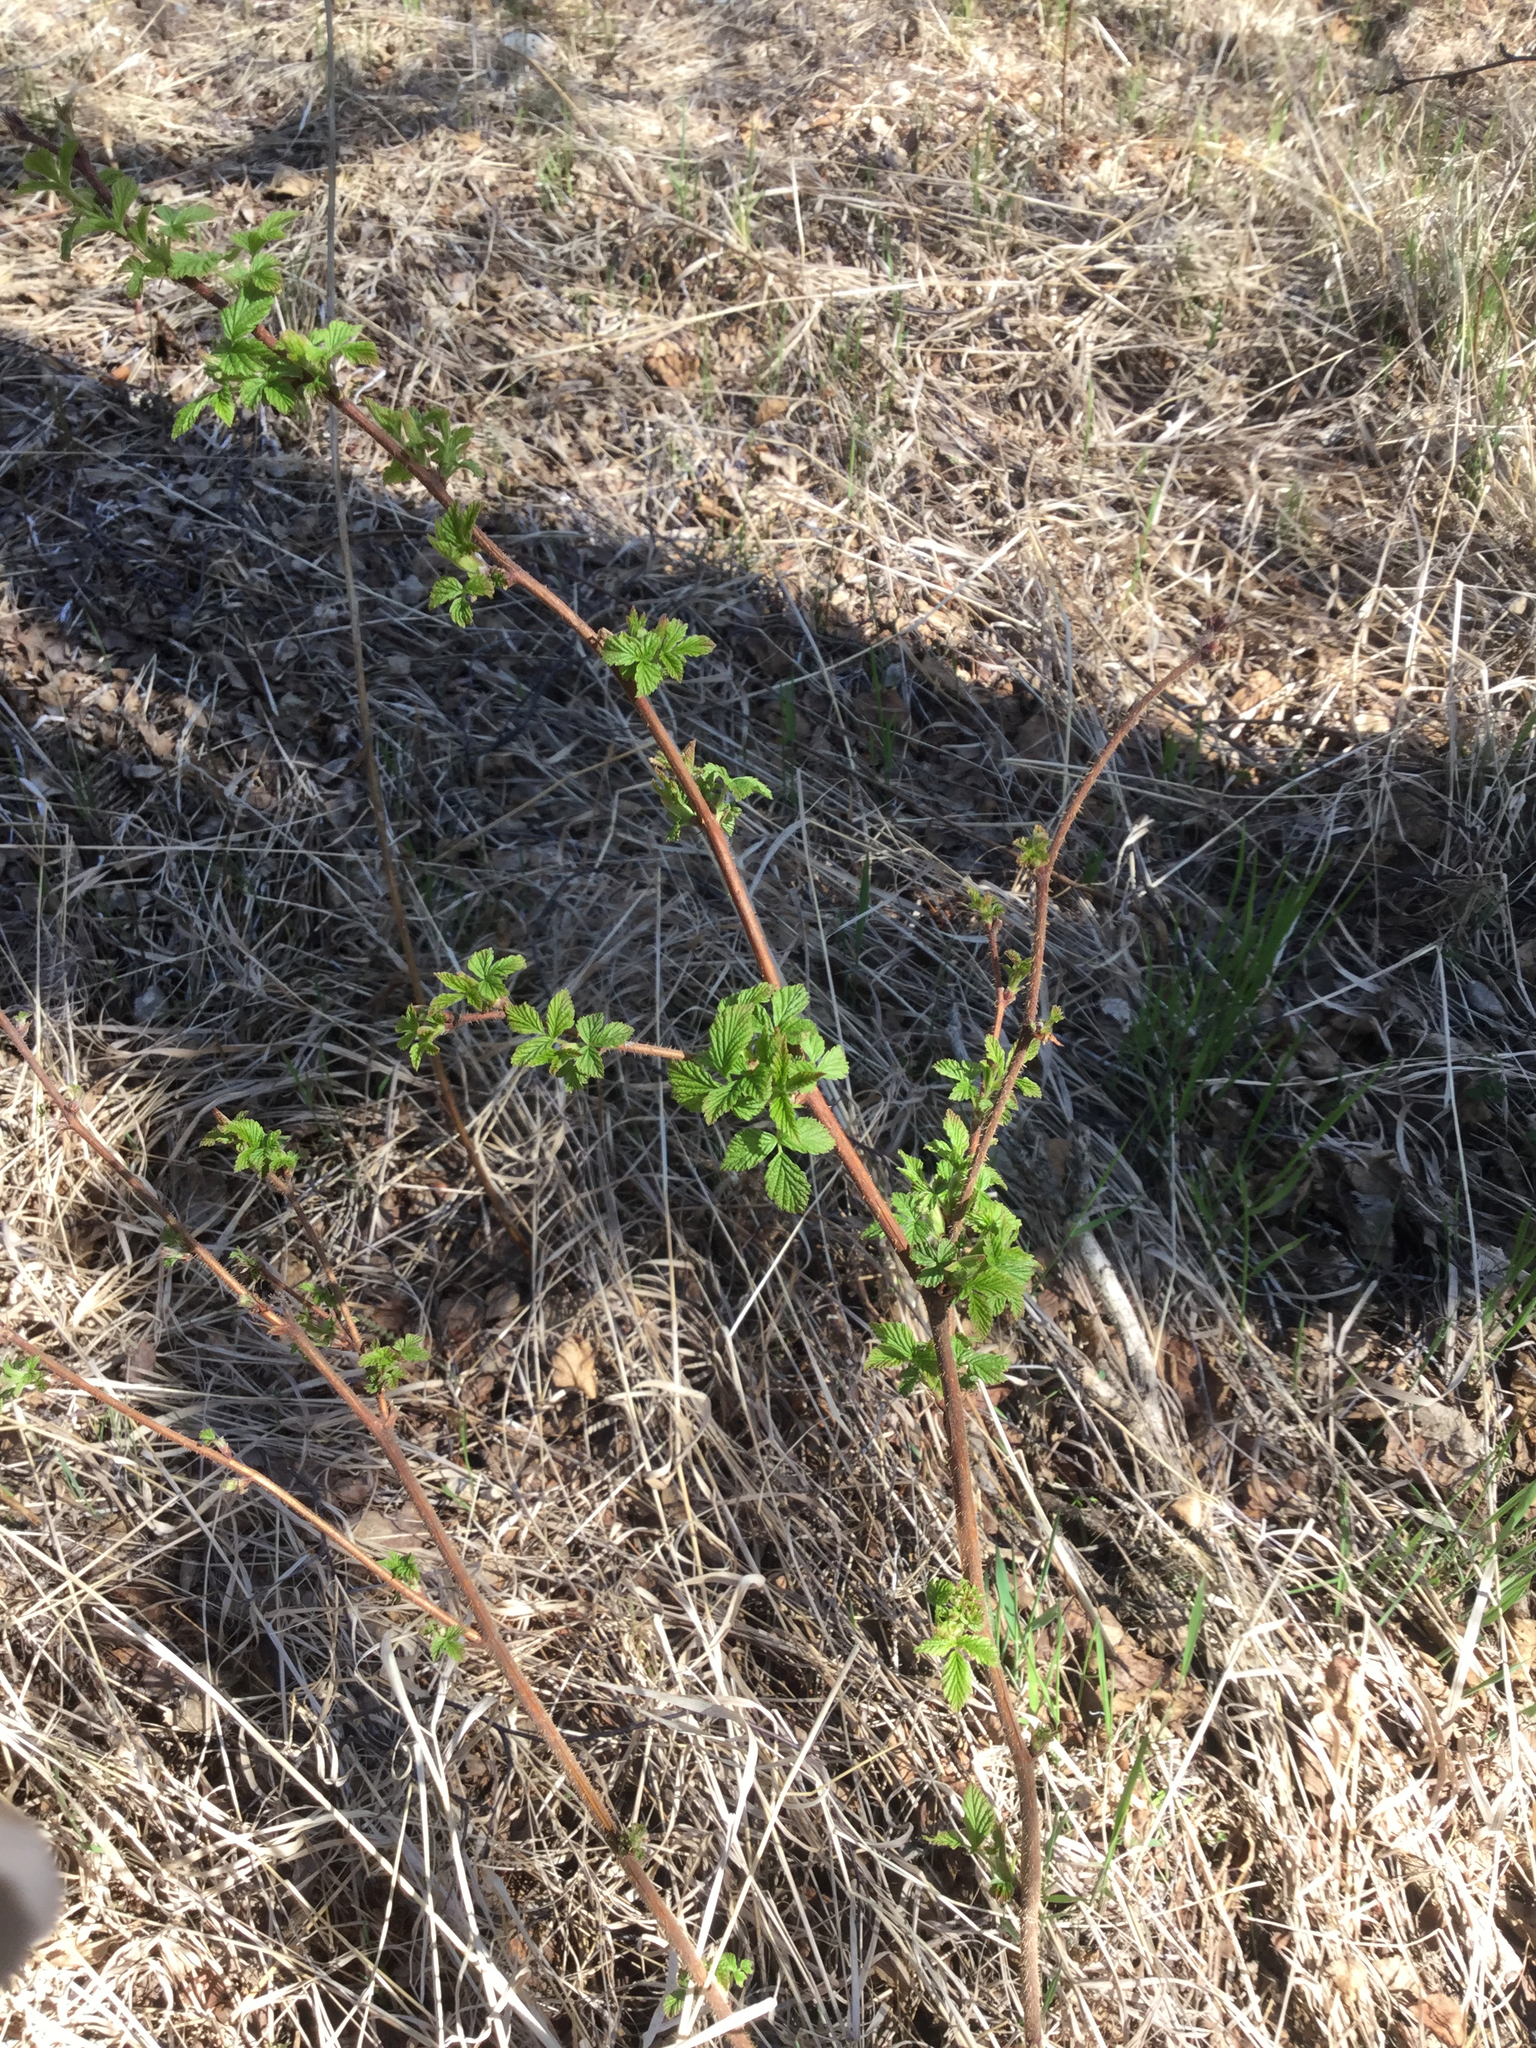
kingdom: Plantae
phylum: Tracheophyta
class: Magnoliopsida
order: Rosales
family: Rosaceae
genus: Rubus
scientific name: Rubus idaeus
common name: Raspberry
